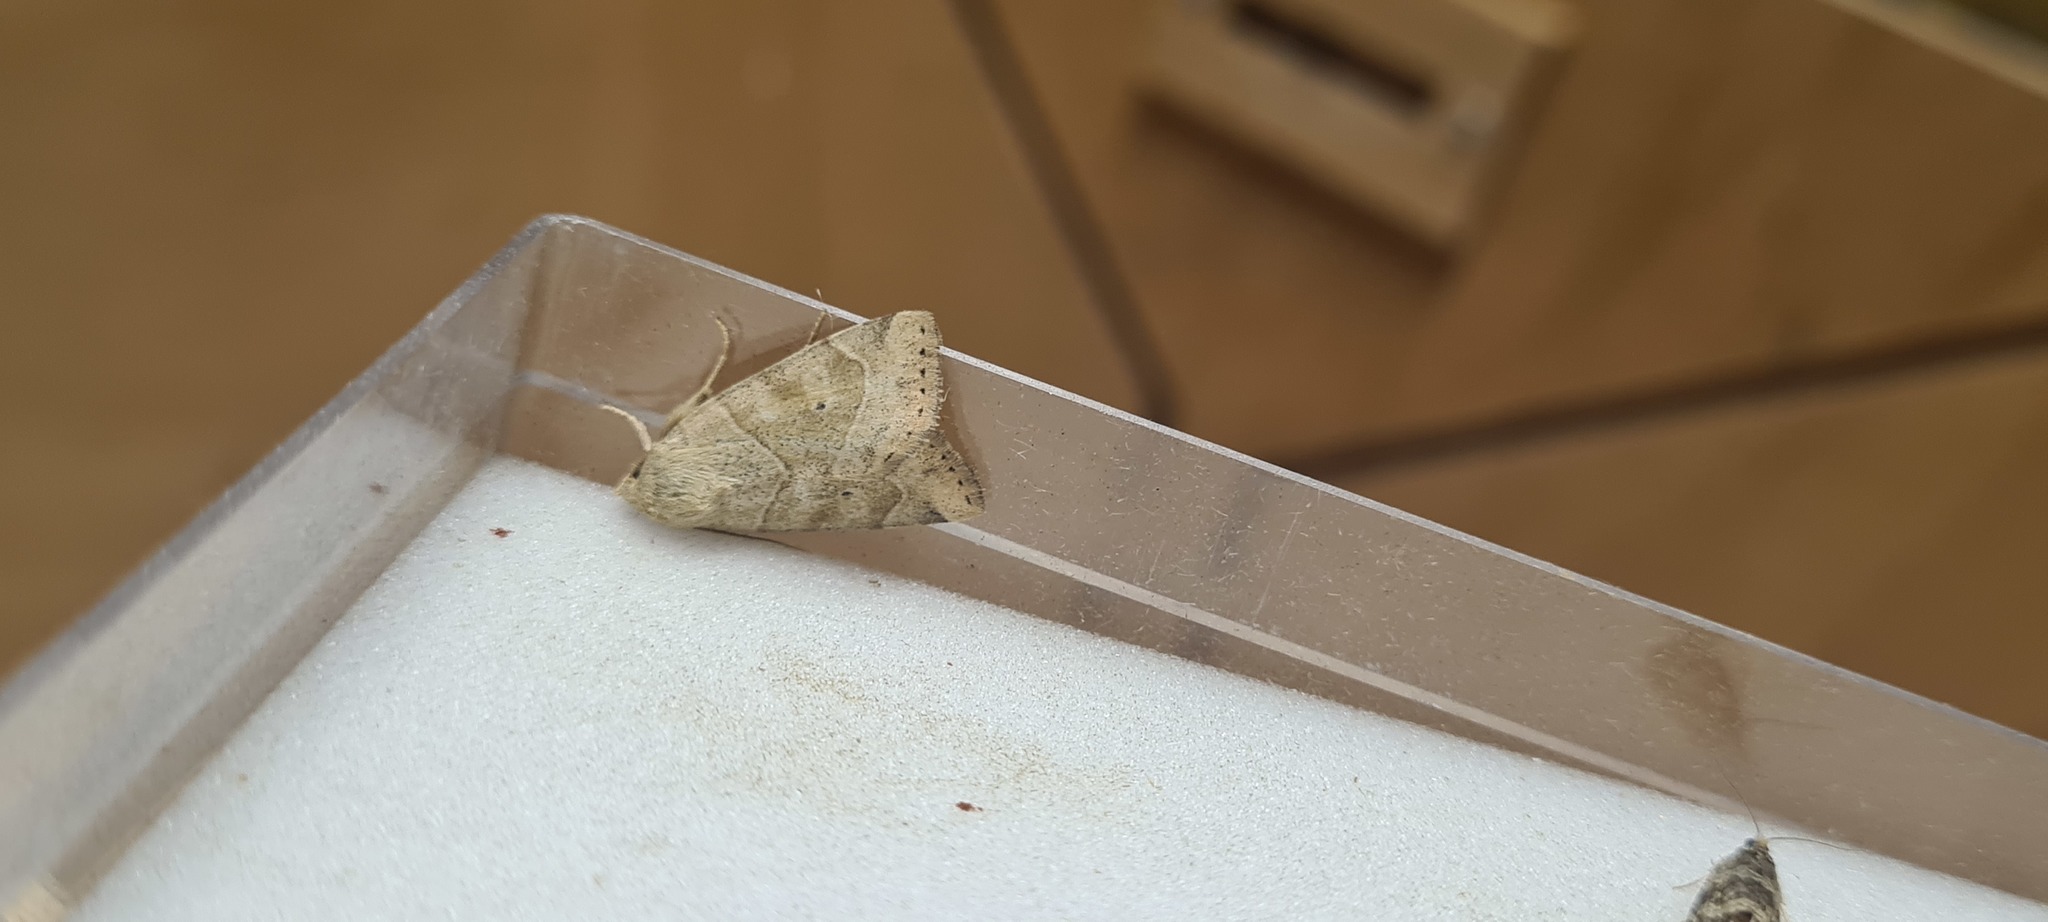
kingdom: Animalia
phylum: Arthropoda
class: Insecta
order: Lepidoptera
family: Noctuidae
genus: Cosmia
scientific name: Cosmia trapezina
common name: Dun-bar
